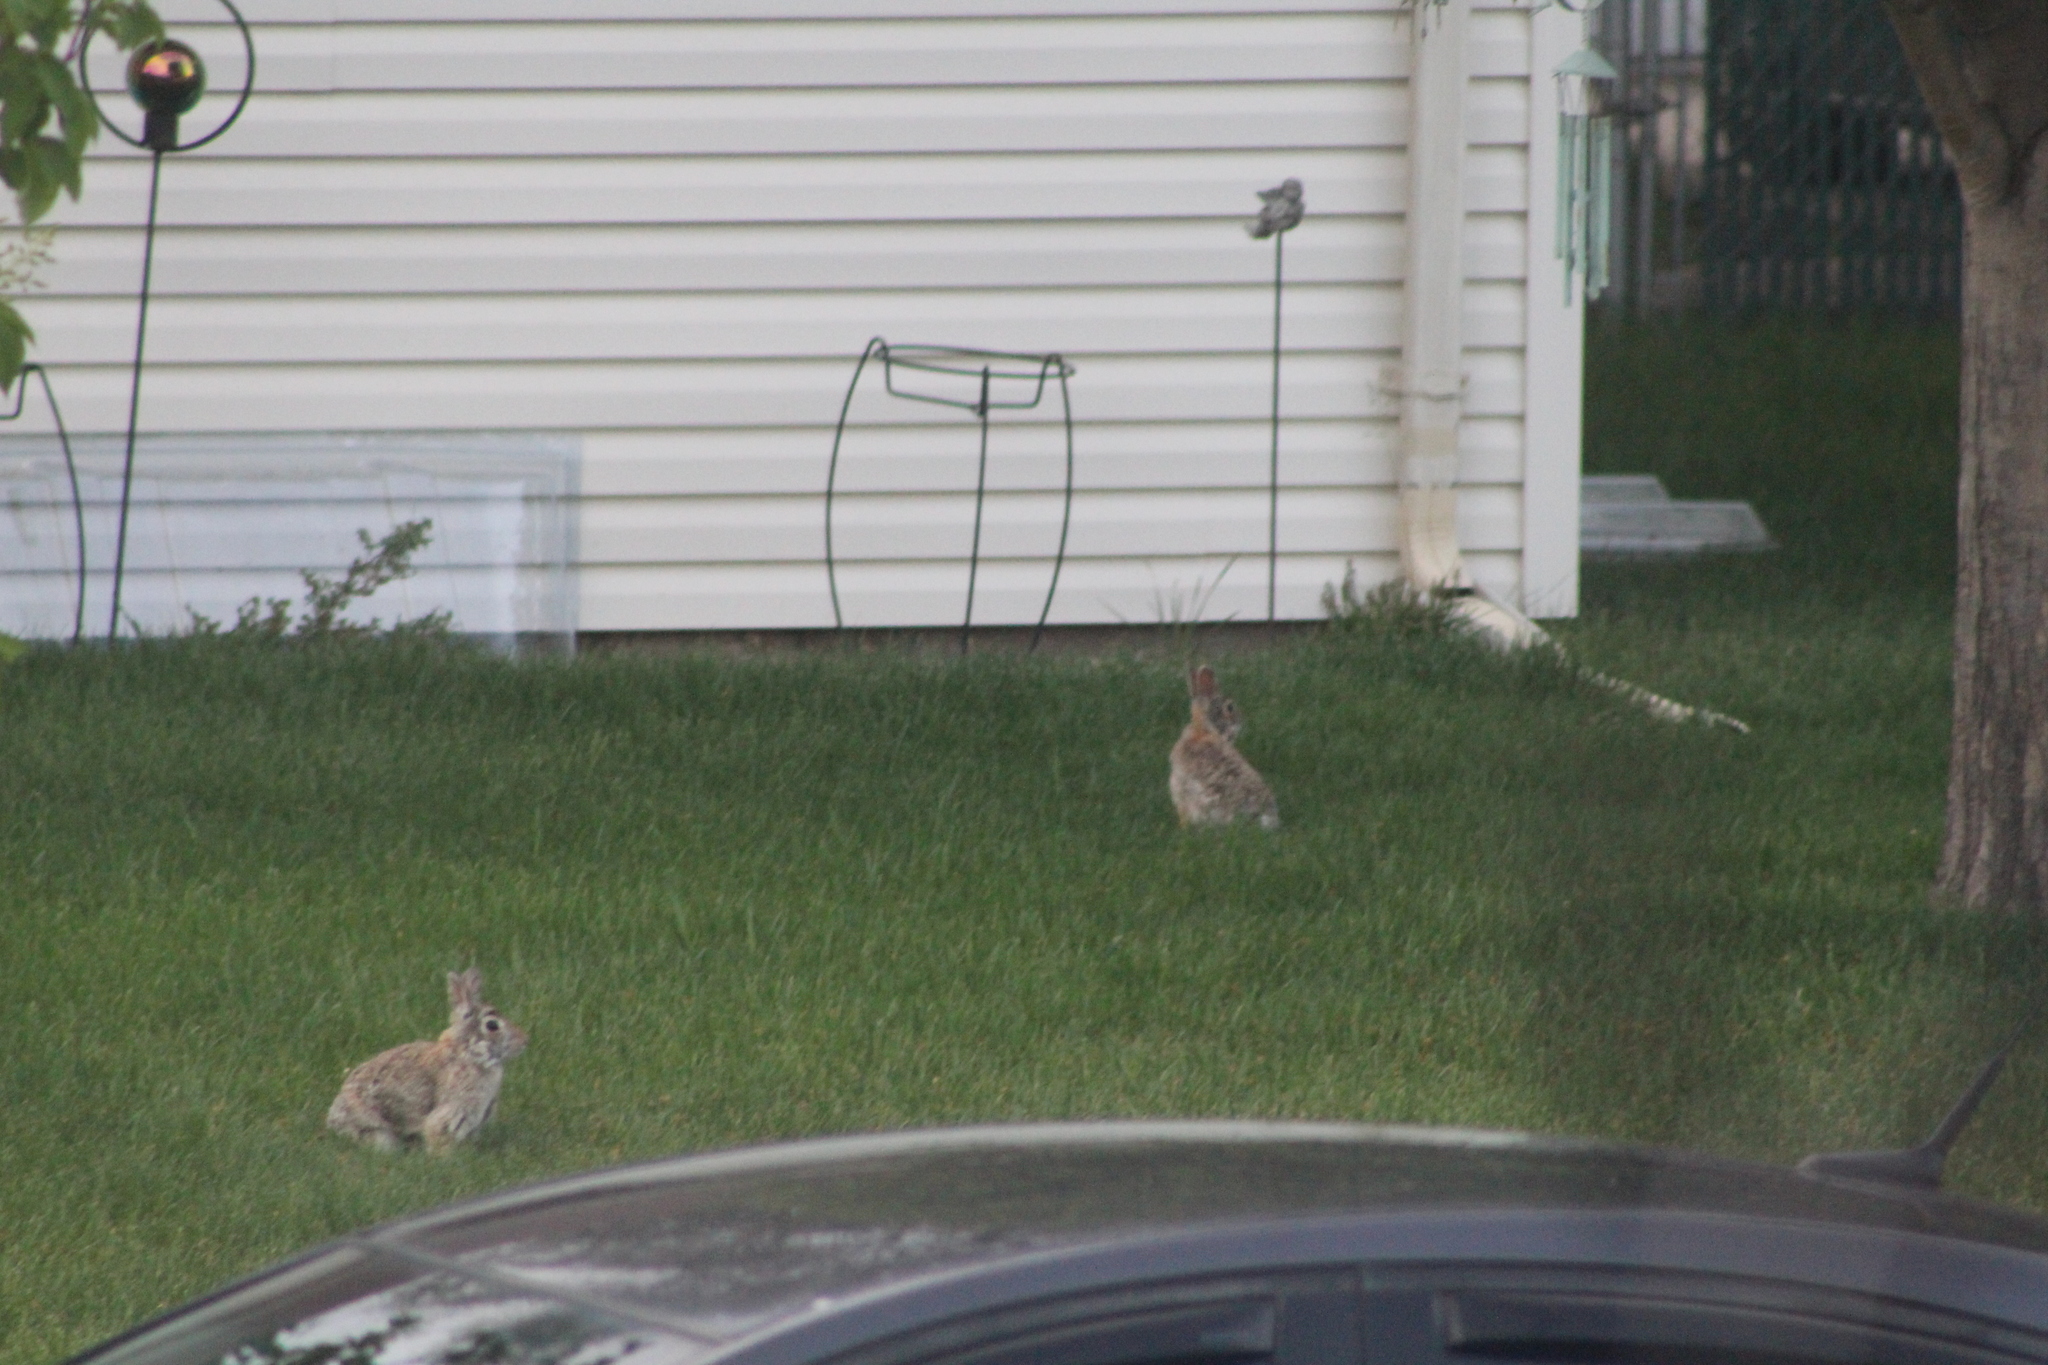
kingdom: Animalia
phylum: Chordata
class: Mammalia
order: Lagomorpha
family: Leporidae
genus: Sylvilagus
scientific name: Sylvilagus floridanus
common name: Eastern cottontail
